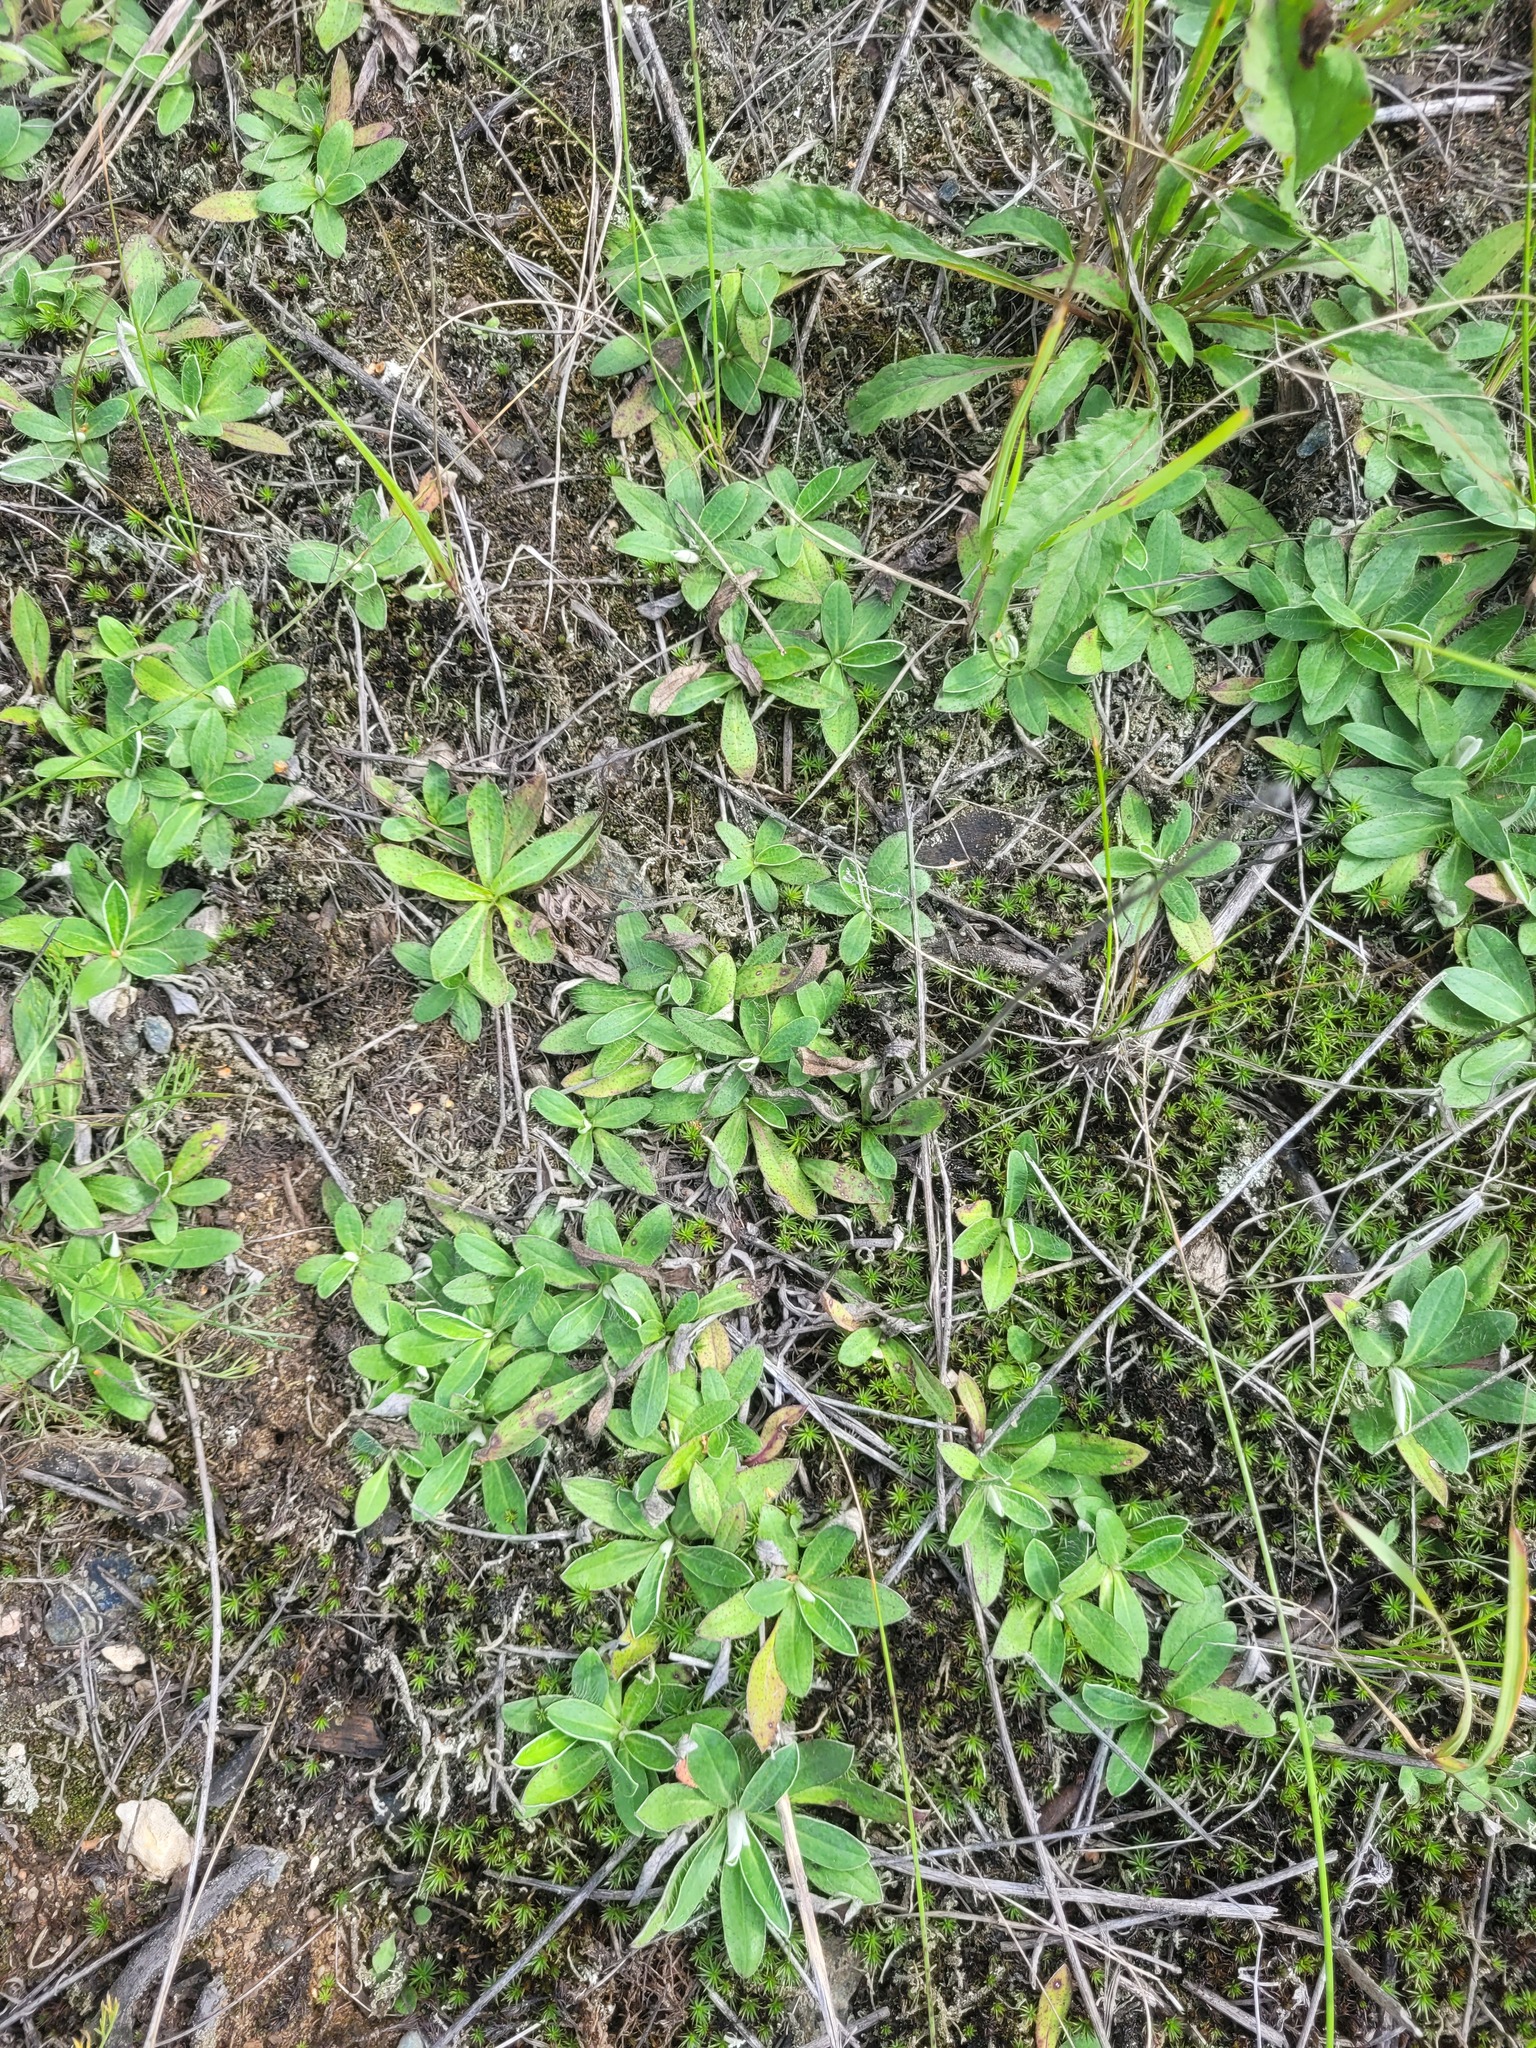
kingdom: Plantae
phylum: Tracheophyta
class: Magnoliopsida
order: Asterales
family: Asteraceae
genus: Pilosella
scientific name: Pilosella officinarum
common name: Mouse-ear hawkweed
